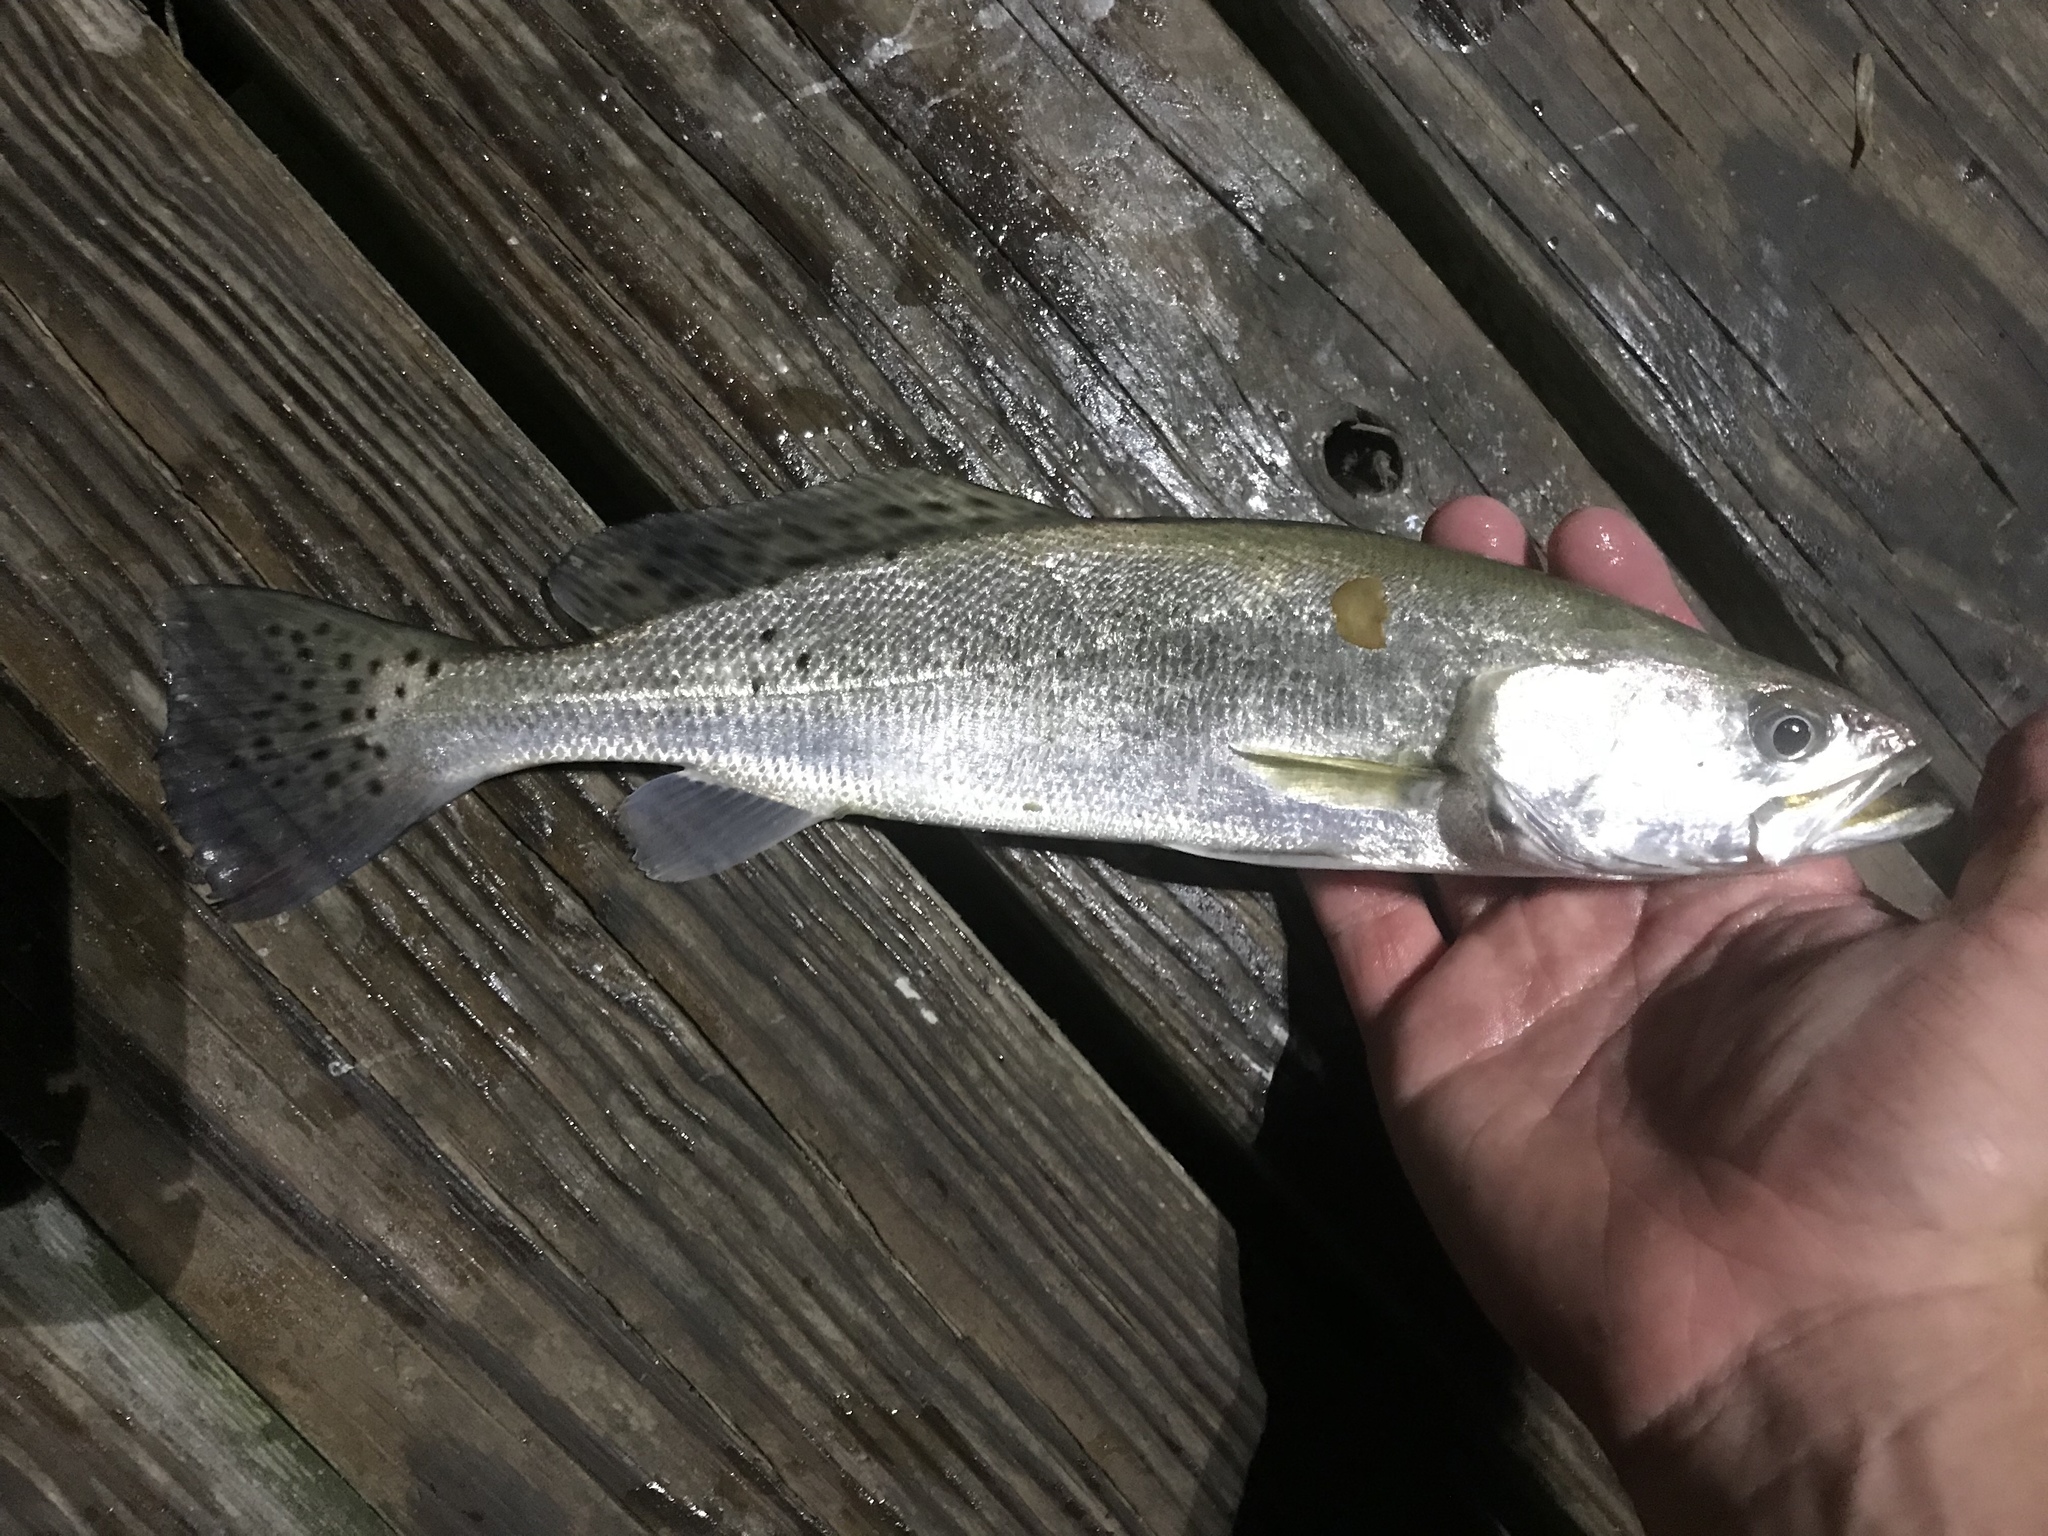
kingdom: Animalia
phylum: Chordata
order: Perciformes
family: Sciaenidae
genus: Cynoscion
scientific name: Cynoscion nebulosus
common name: Spotted seatrout
